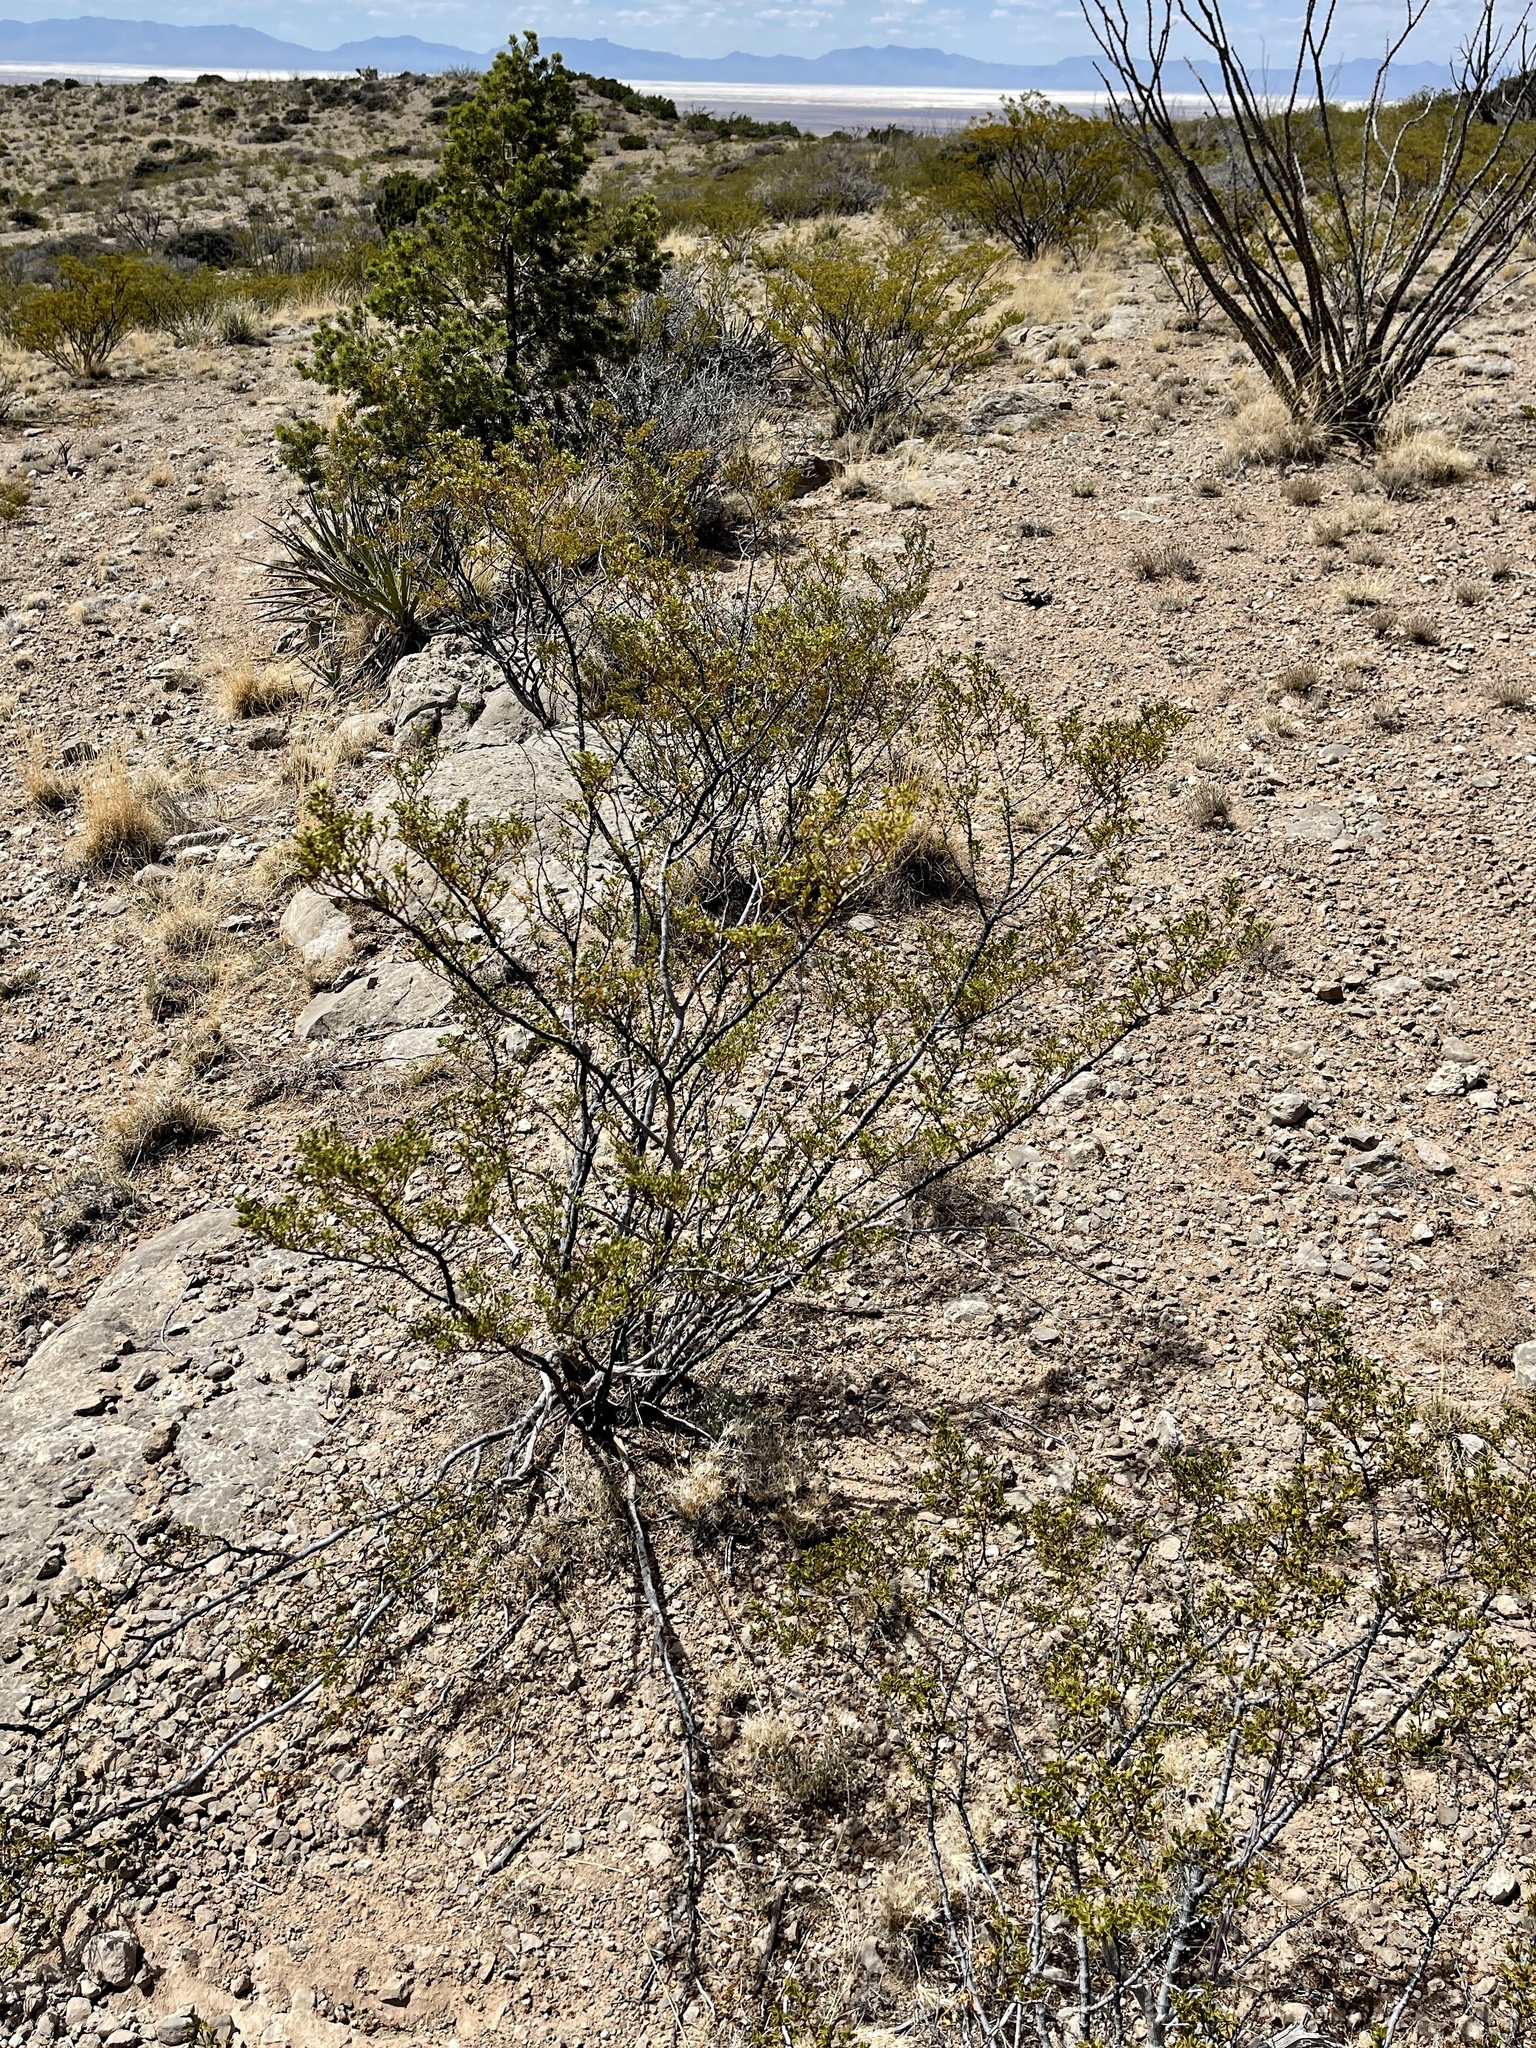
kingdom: Plantae
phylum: Tracheophyta
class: Magnoliopsida
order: Zygophyllales
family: Zygophyllaceae
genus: Larrea
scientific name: Larrea tridentata
